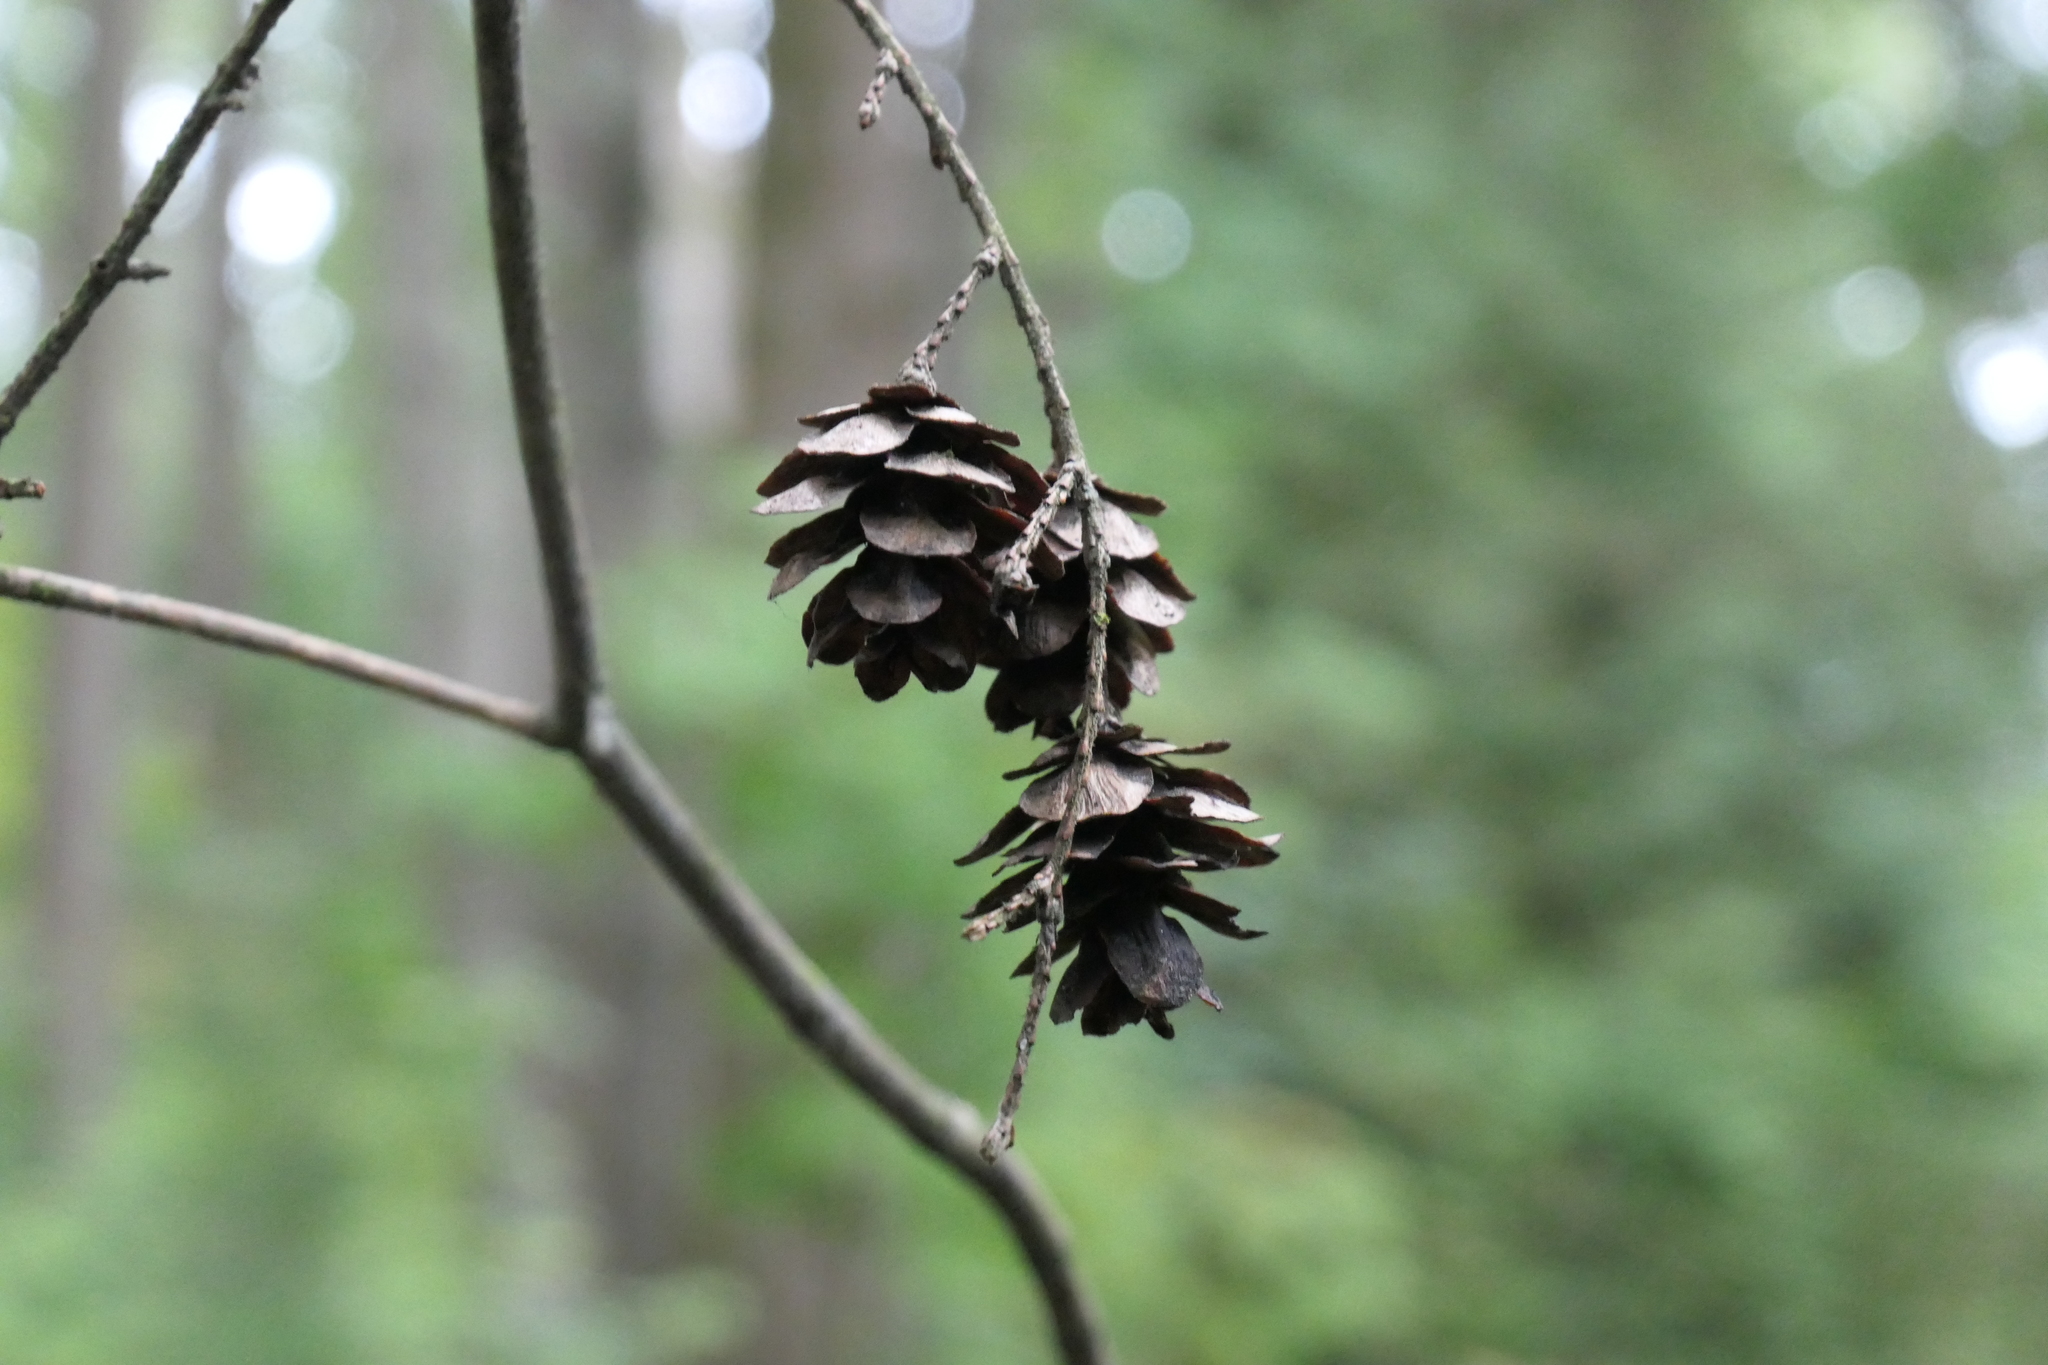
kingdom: Plantae
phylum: Tracheophyta
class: Pinopsida
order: Pinales
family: Pinaceae
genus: Tsuga
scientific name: Tsuga heterophylla
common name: Western hemlock
